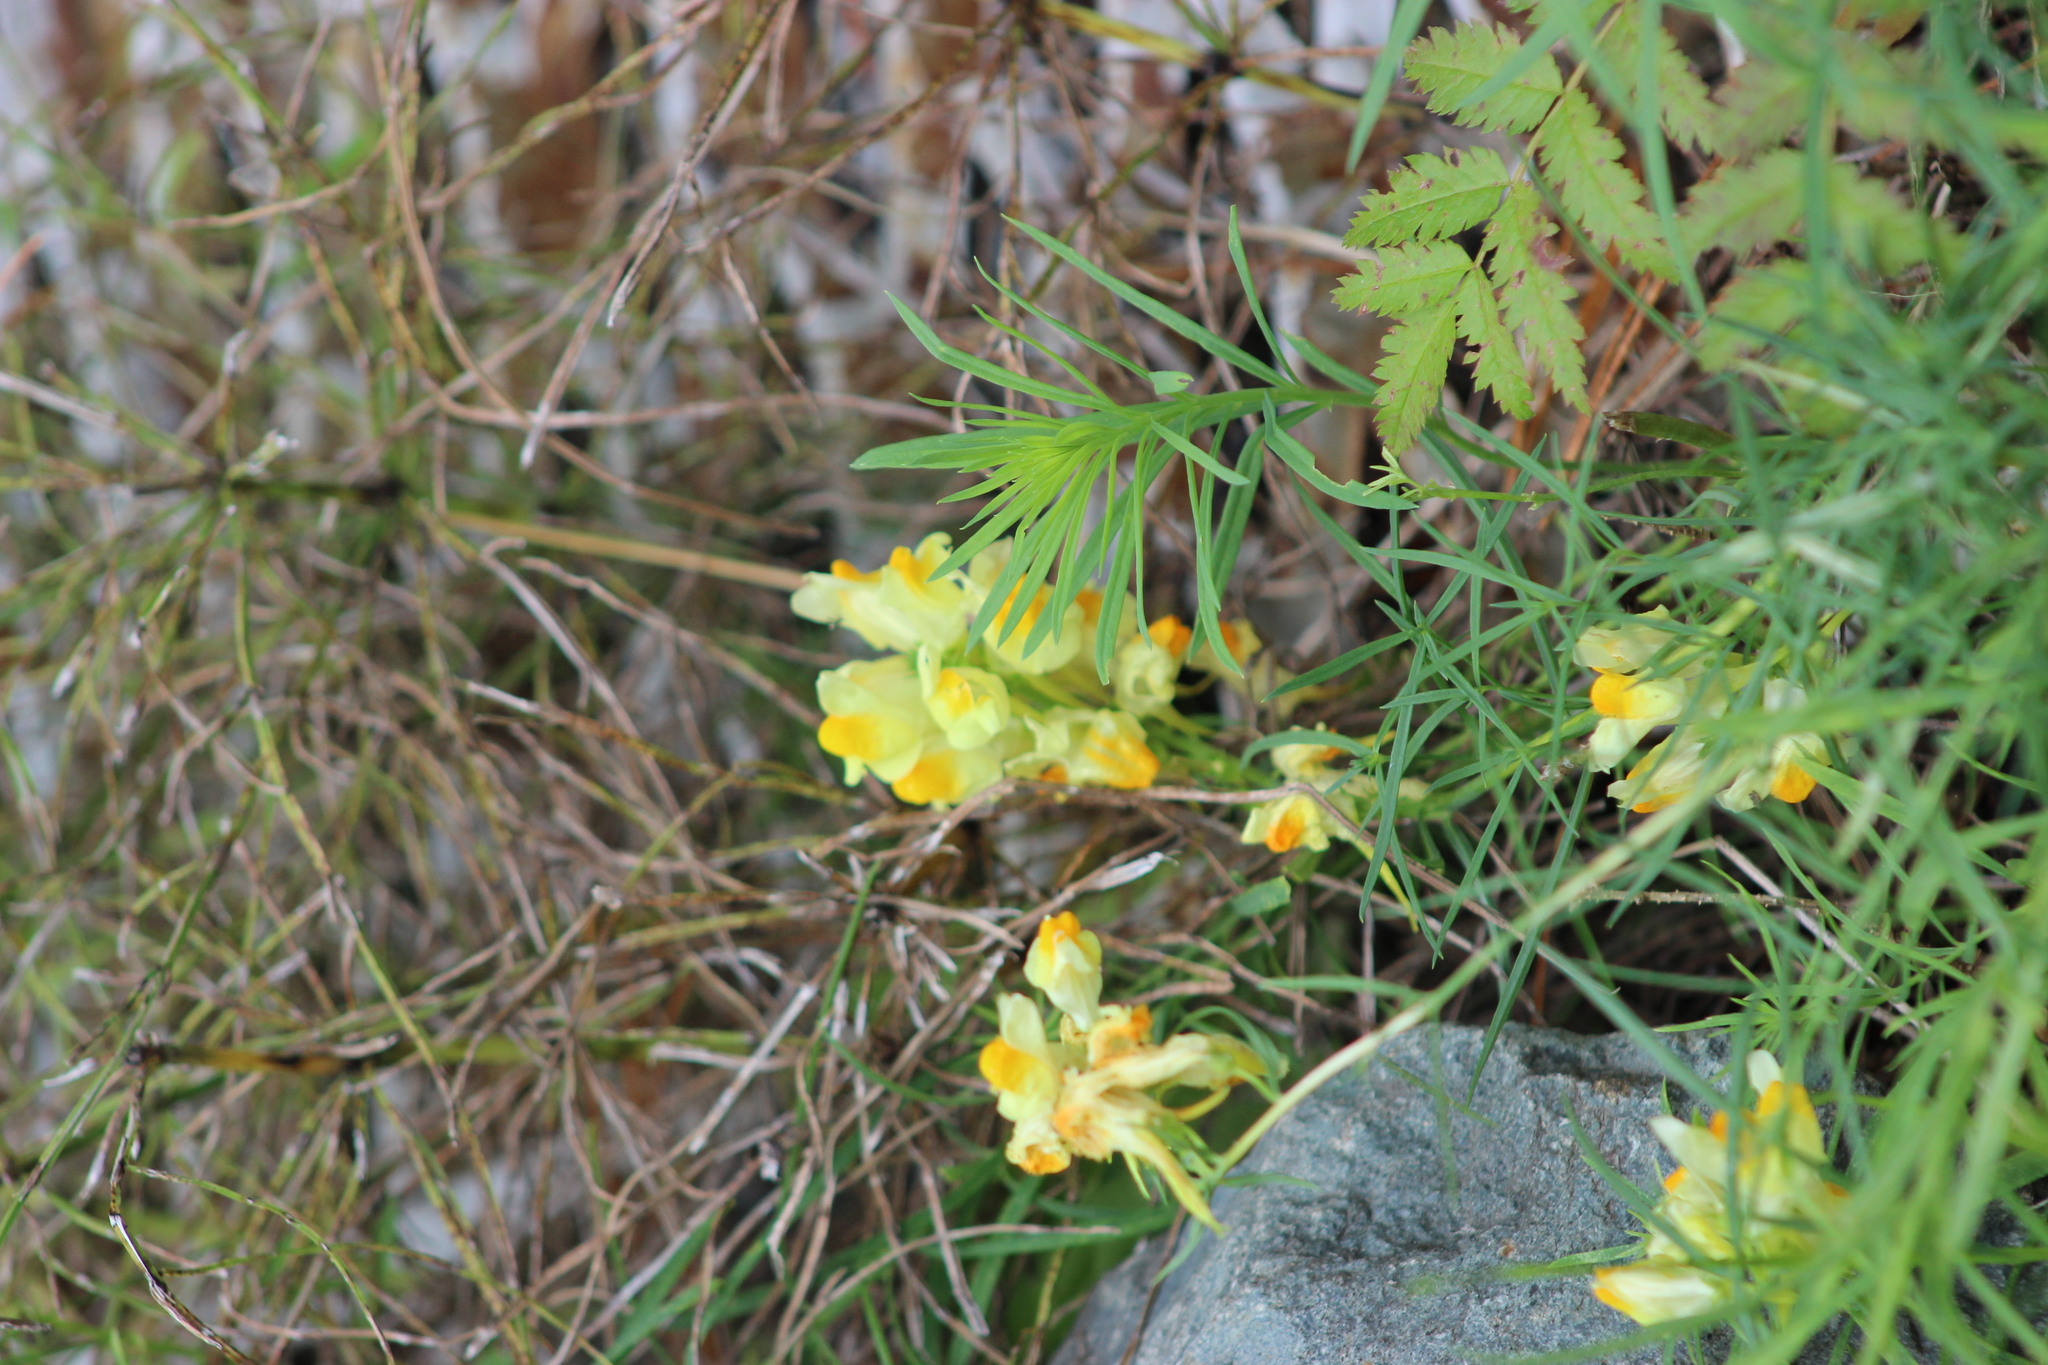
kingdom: Plantae
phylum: Tracheophyta
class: Magnoliopsida
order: Lamiales
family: Plantaginaceae
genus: Linaria
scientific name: Linaria vulgaris
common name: Butter and eggs
